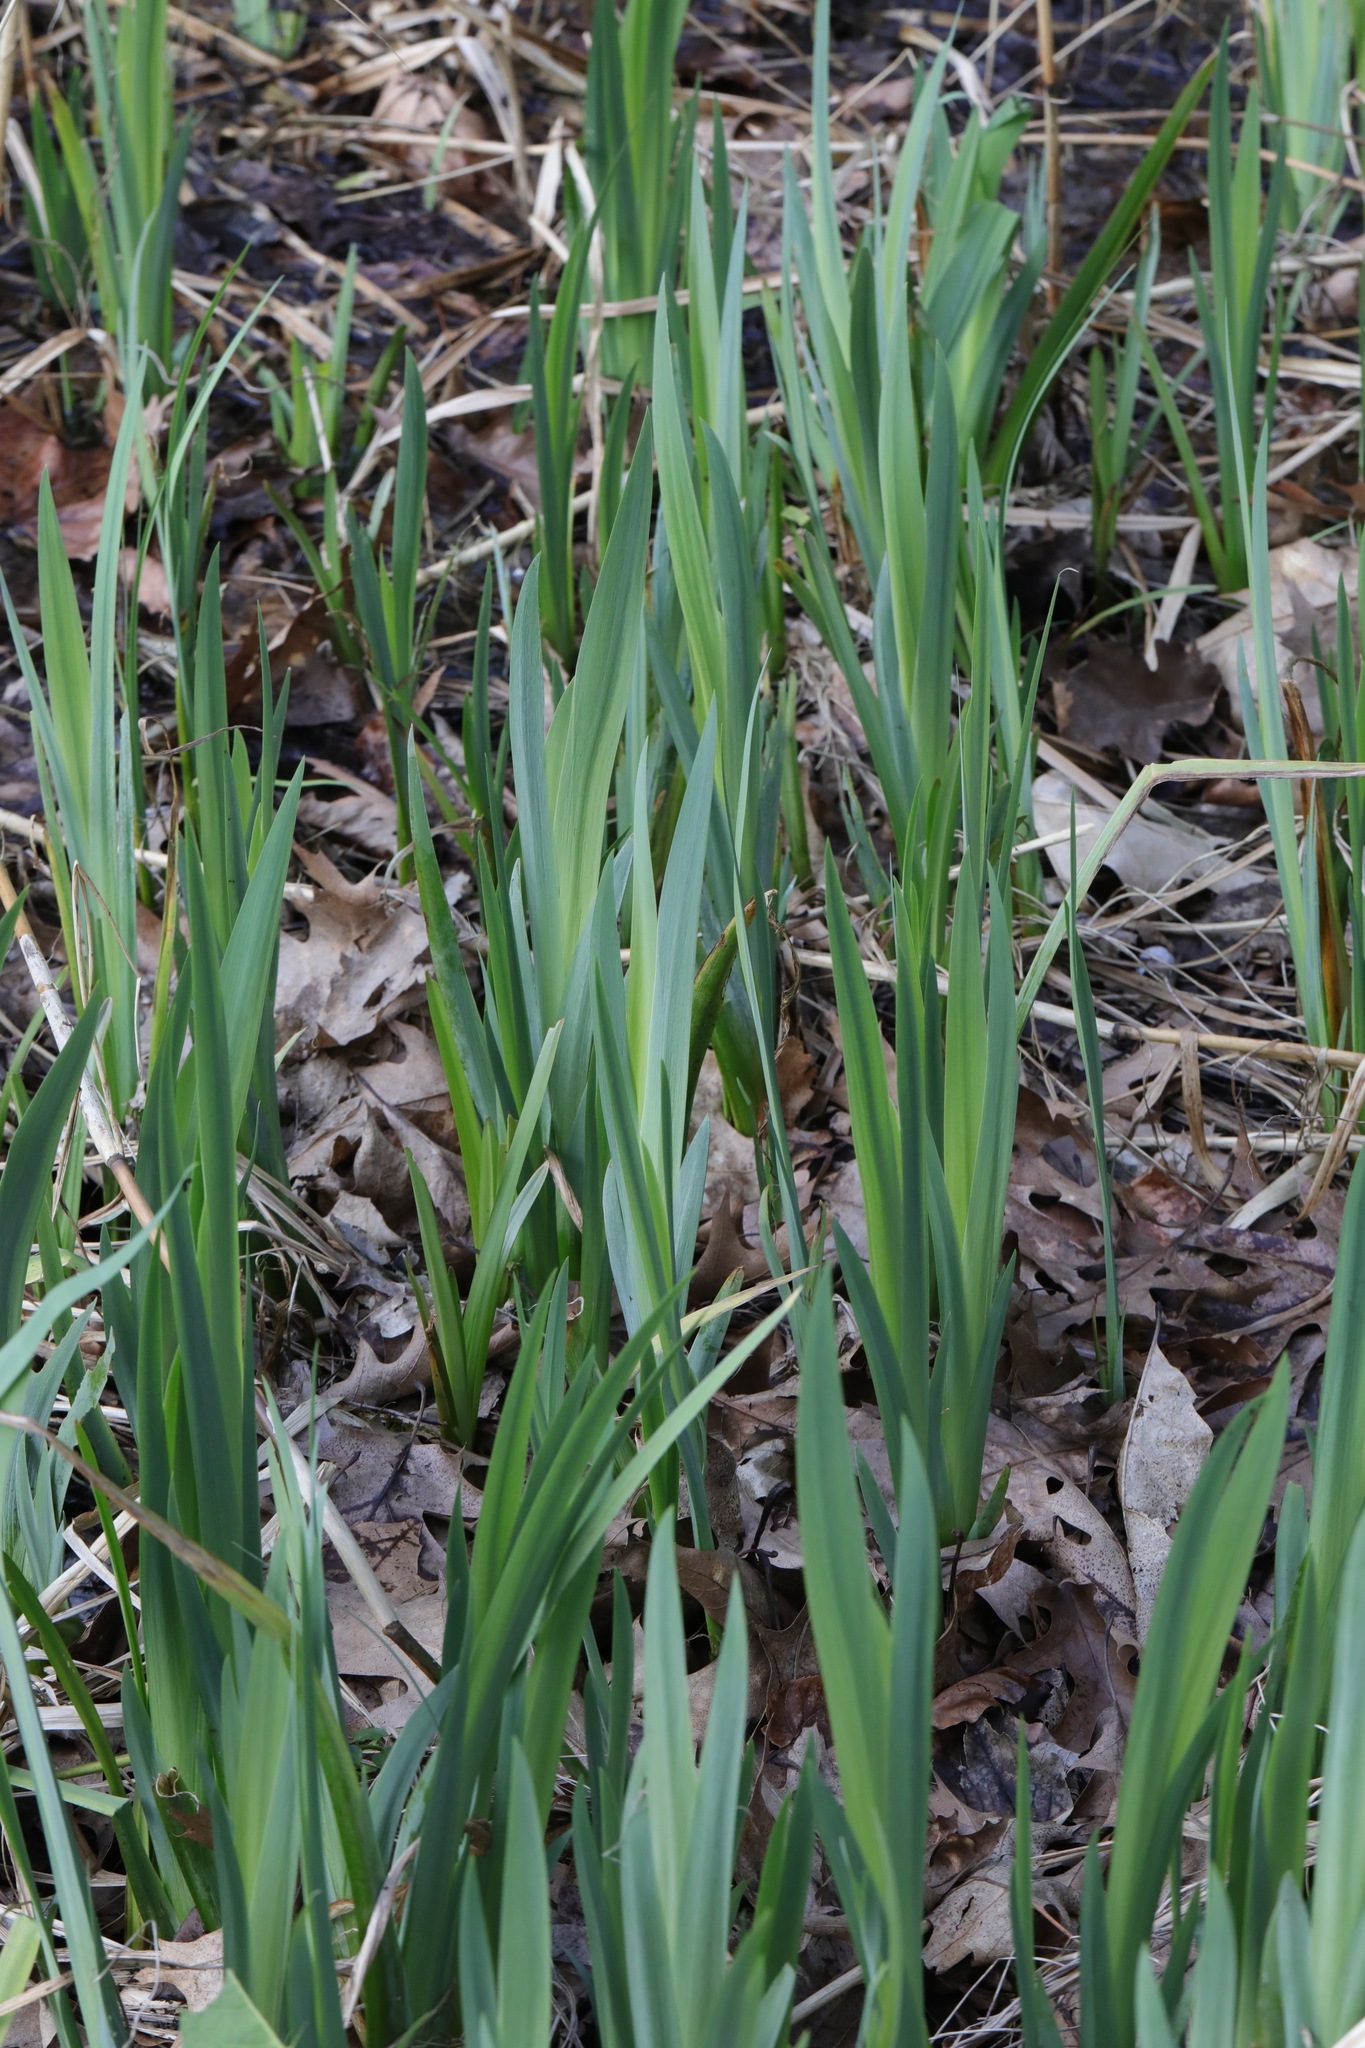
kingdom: Plantae
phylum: Tracheophyta
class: Liliopsida
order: Asparagales
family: Iridaceae
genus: Iris
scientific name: Iris pseudacorus
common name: Yellow flag
